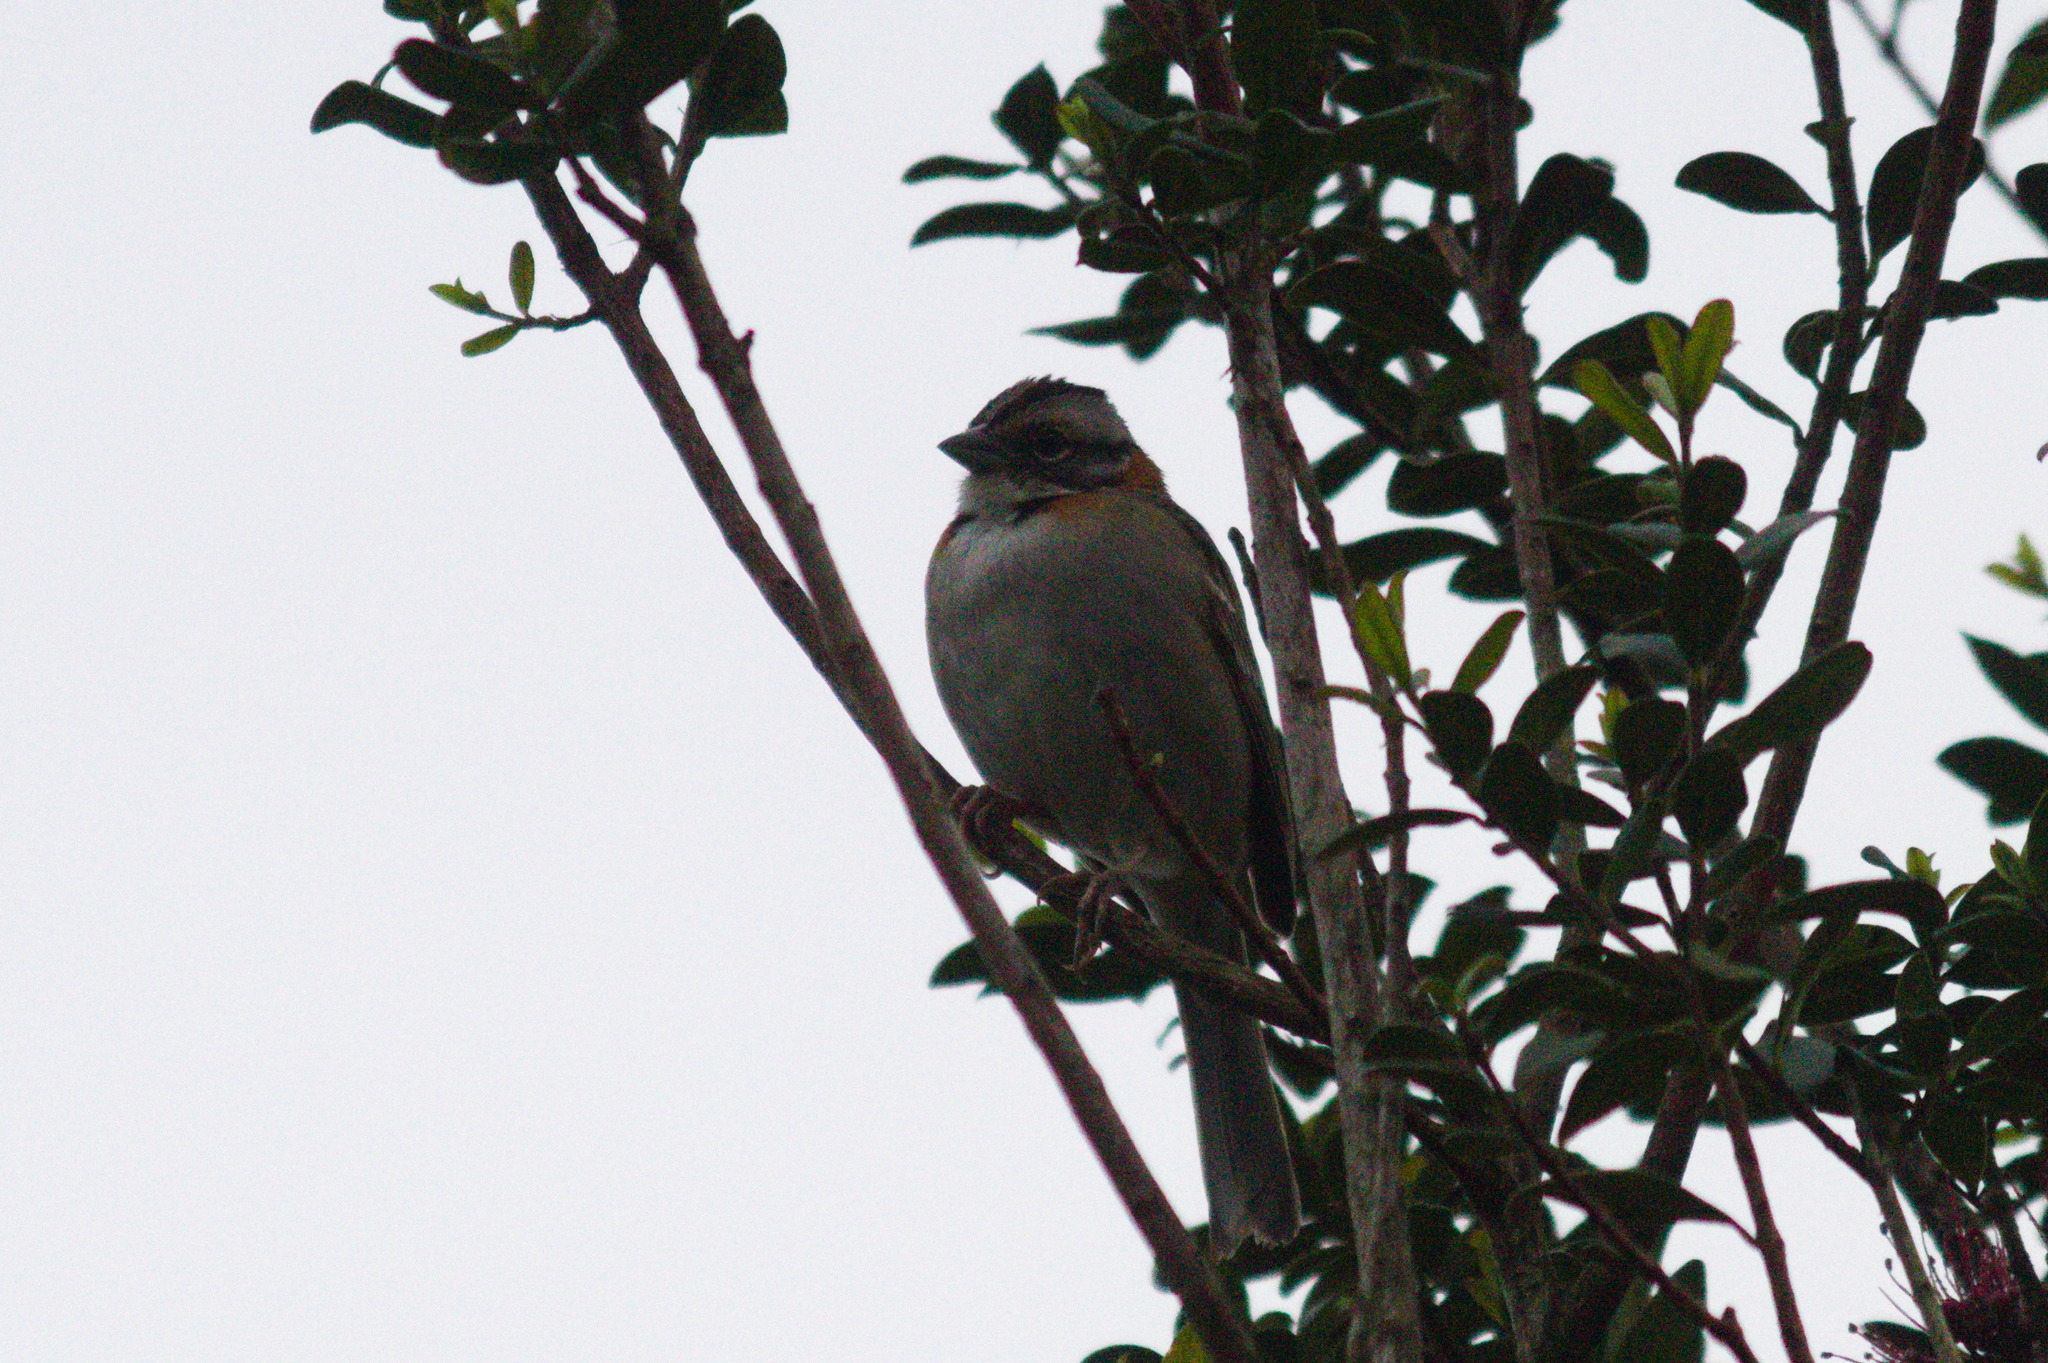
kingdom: Animalia
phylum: Chordata
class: Aves
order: Passeriformes
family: Passerellidae
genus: Zonotrichia
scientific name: Zonotrichia capensis
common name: Rufous-collared sparrow
